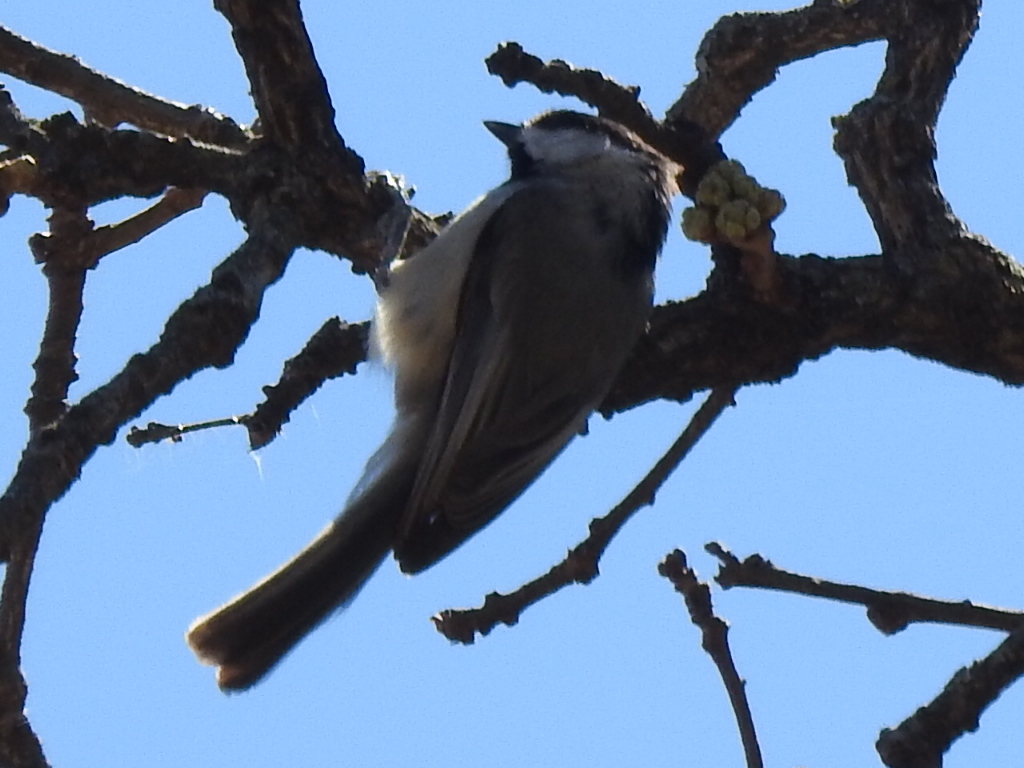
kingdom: Animalia
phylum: Chordata
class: Aves
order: Passeriformes
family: Paridae
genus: Poecile
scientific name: Poecile carolinensis
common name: Carolina chickadee
